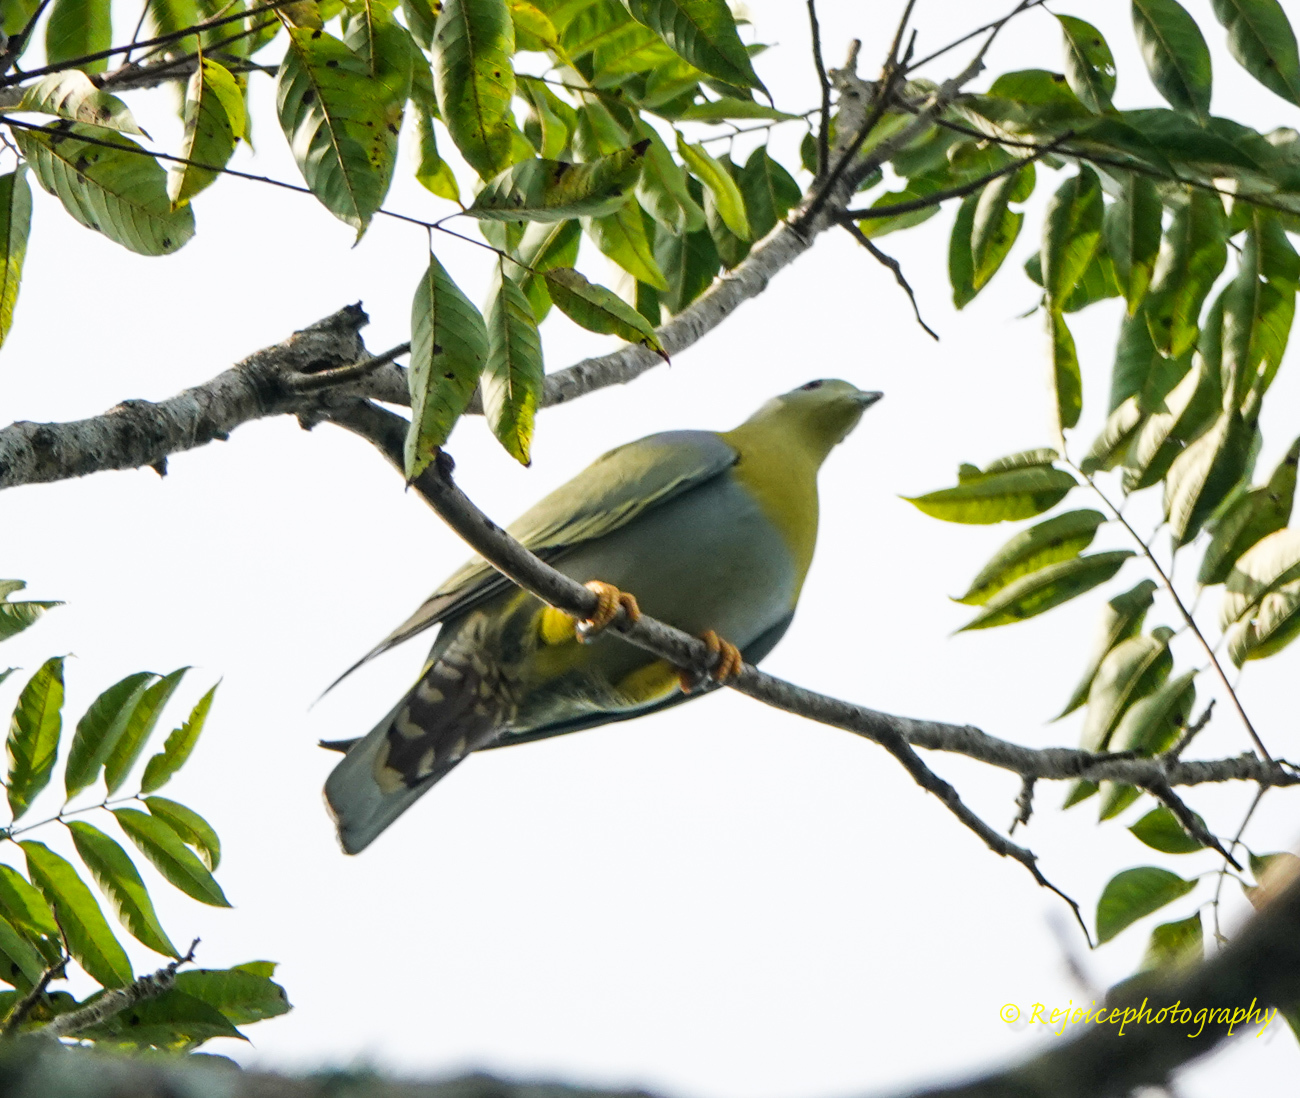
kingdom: Animalia
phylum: Chordata
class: Aves
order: Columbiformes
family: Columbidae
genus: Treron
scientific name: Treron phoenicopterus
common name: Yellow-footed green pigeon
